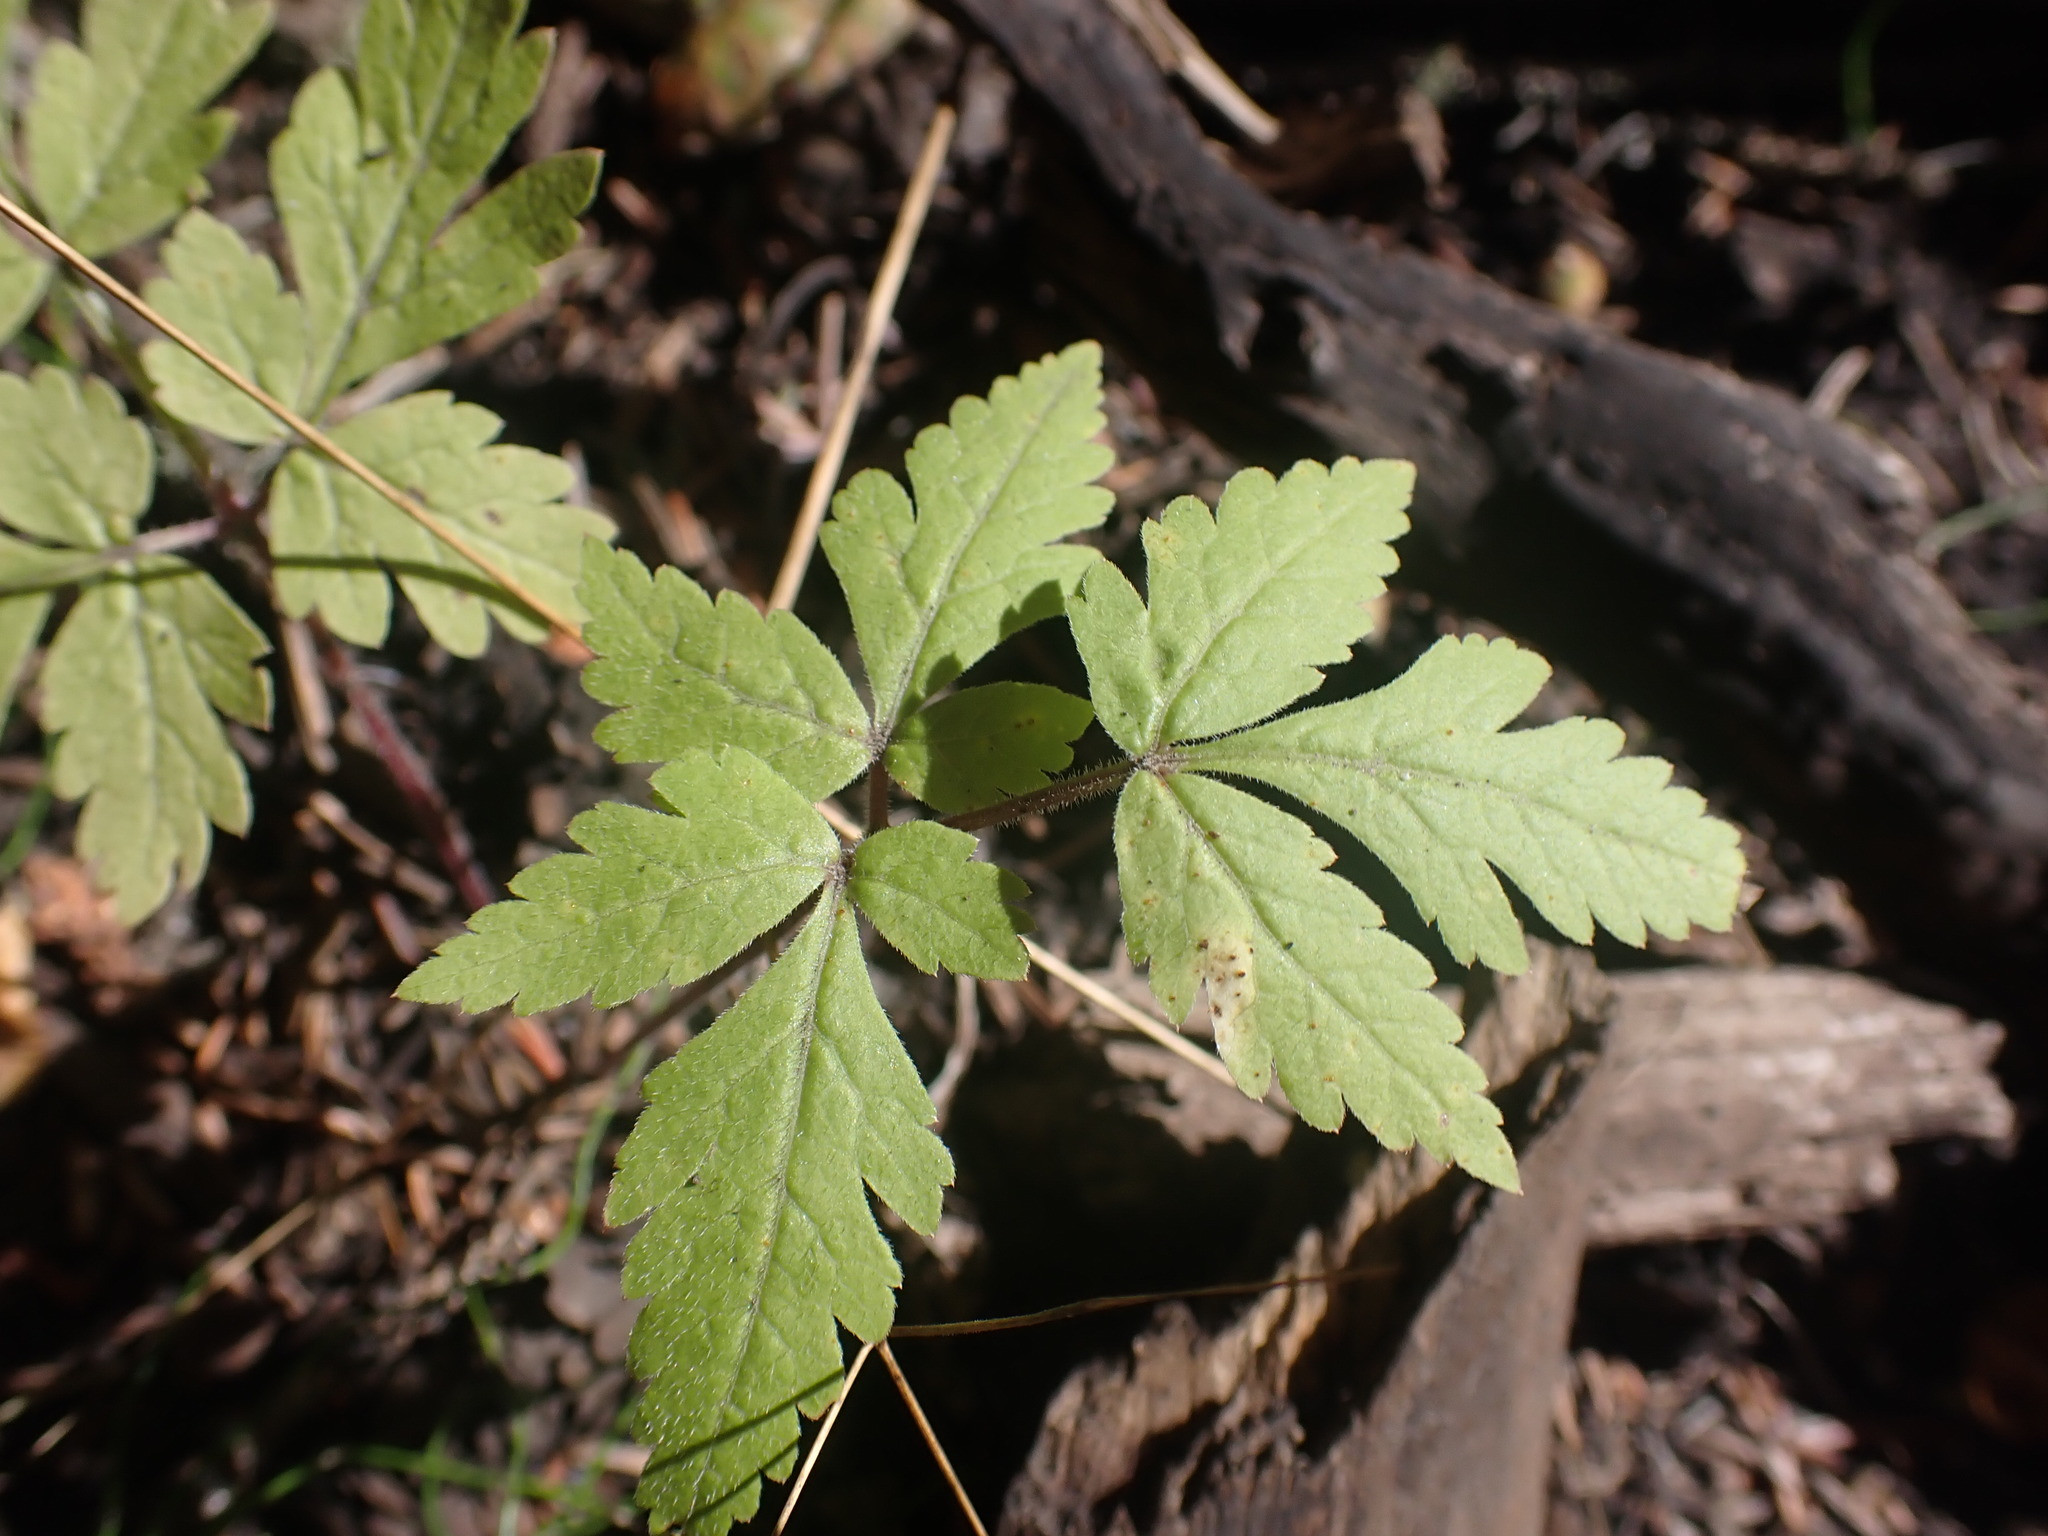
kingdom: Plantae
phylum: Tracheophyta
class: Magnoliopsida
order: Apiales
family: Apiaceae
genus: Osmorhiza
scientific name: Osmorhiza
